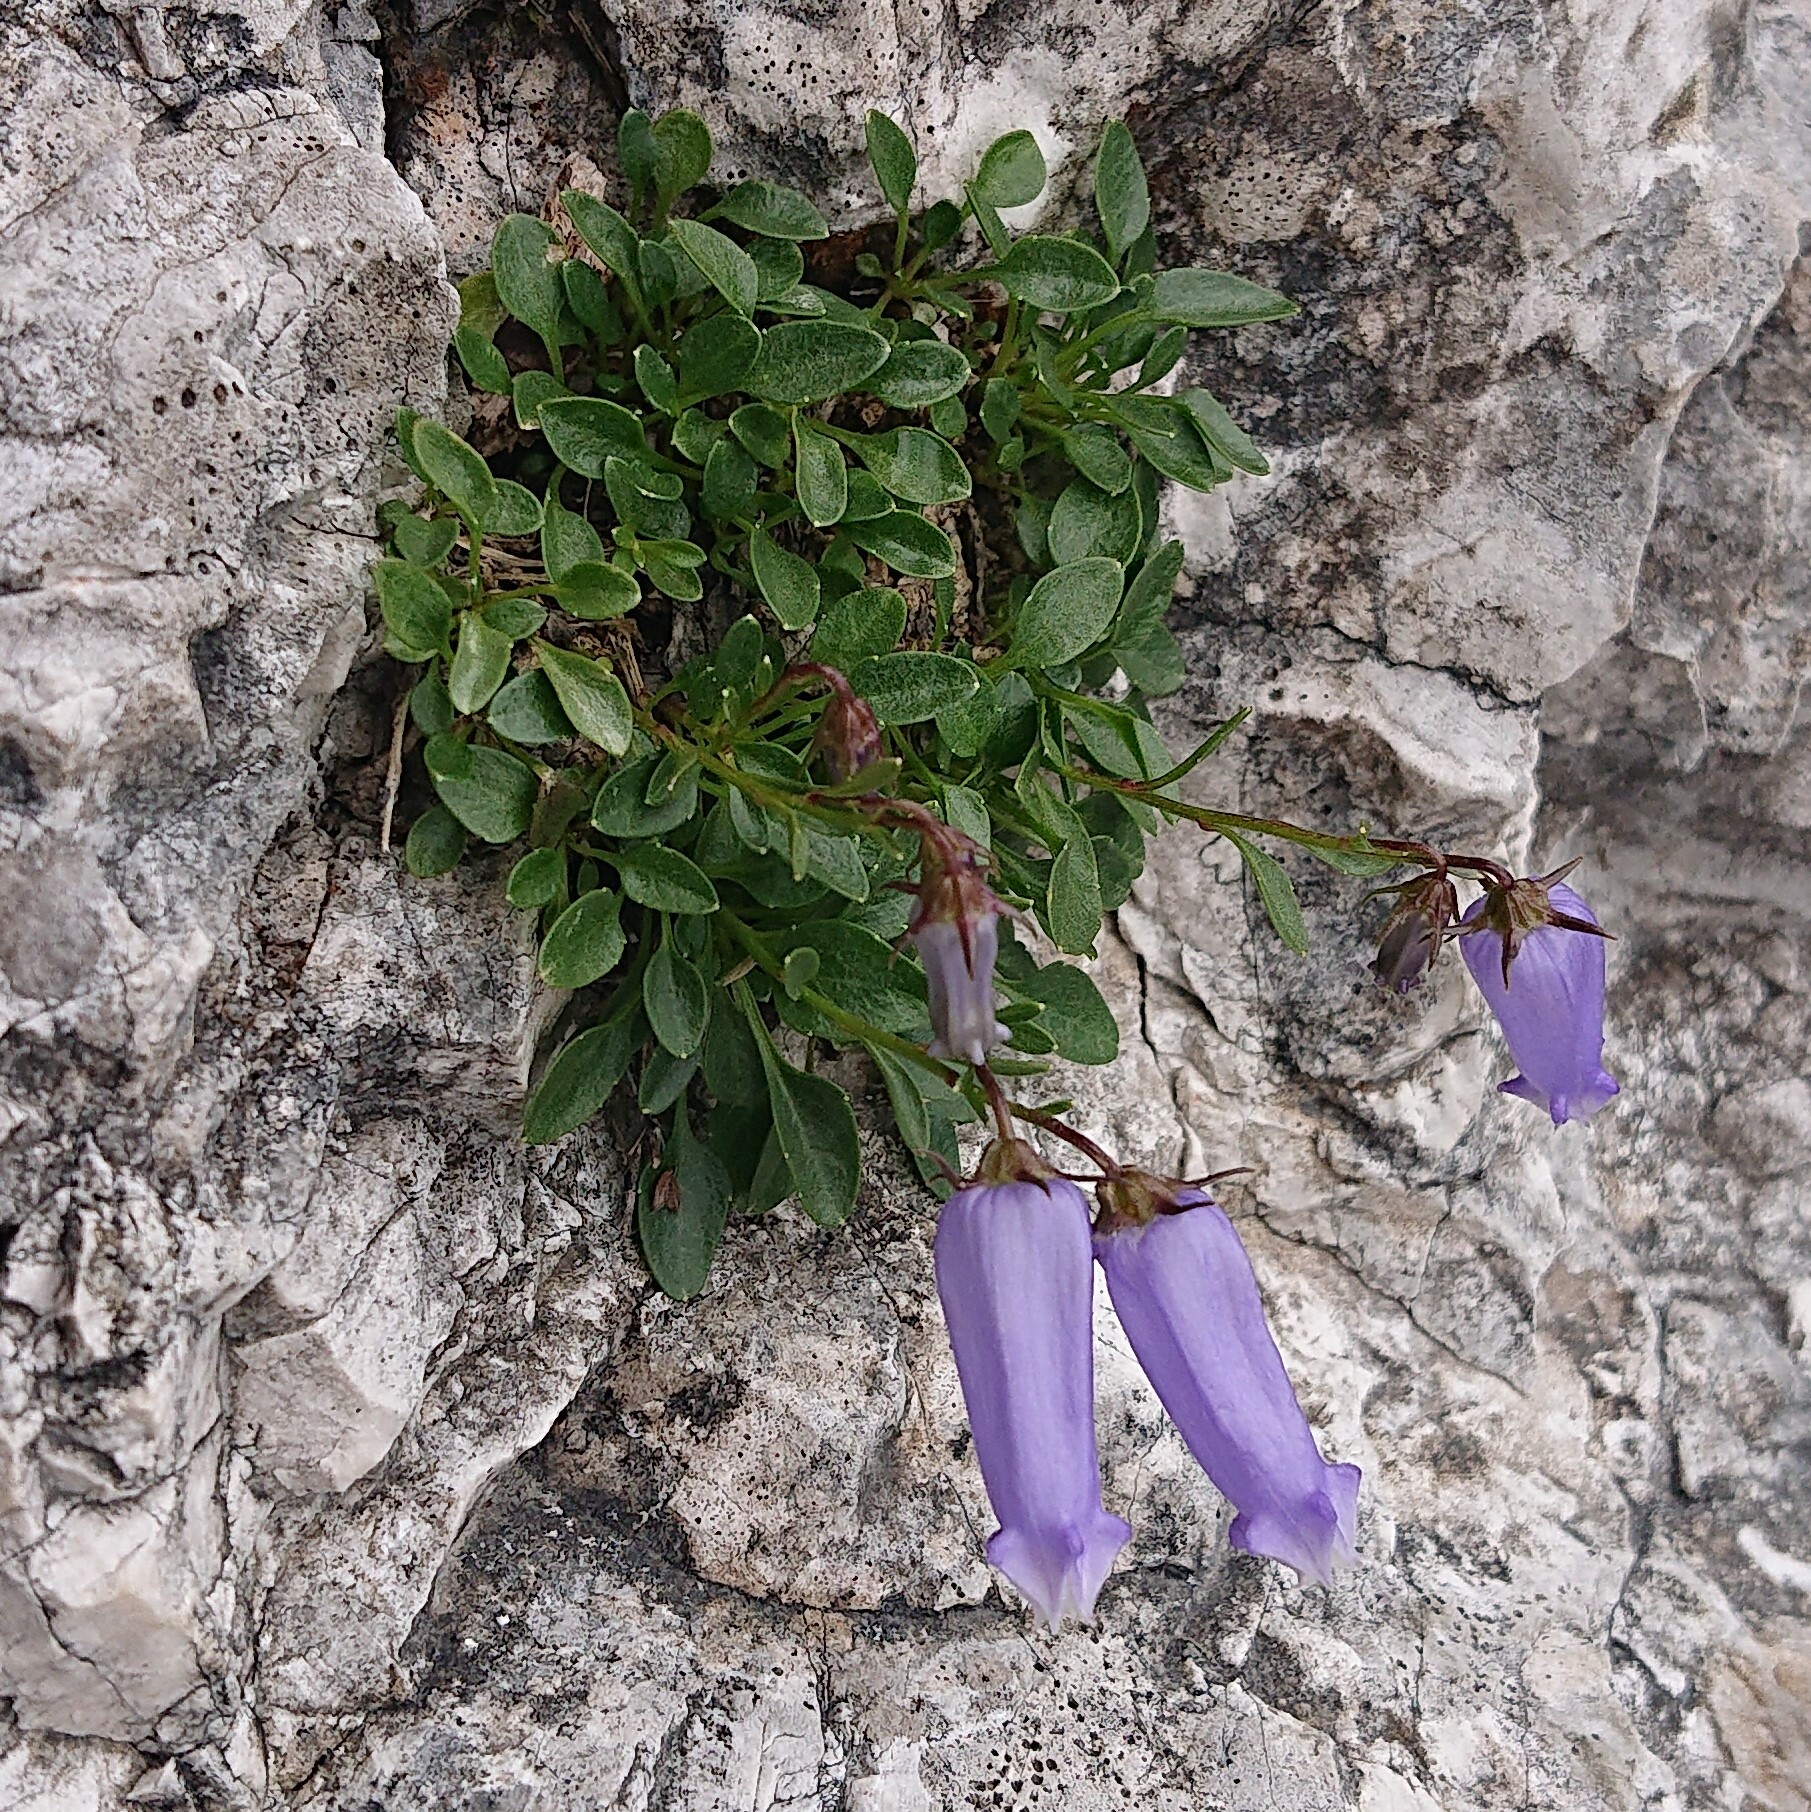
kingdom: Plantae
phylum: Tracheophyta
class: Magnoliopsida
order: Asterales
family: Campanulaceae
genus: Favratia
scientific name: Favratia zoysii
